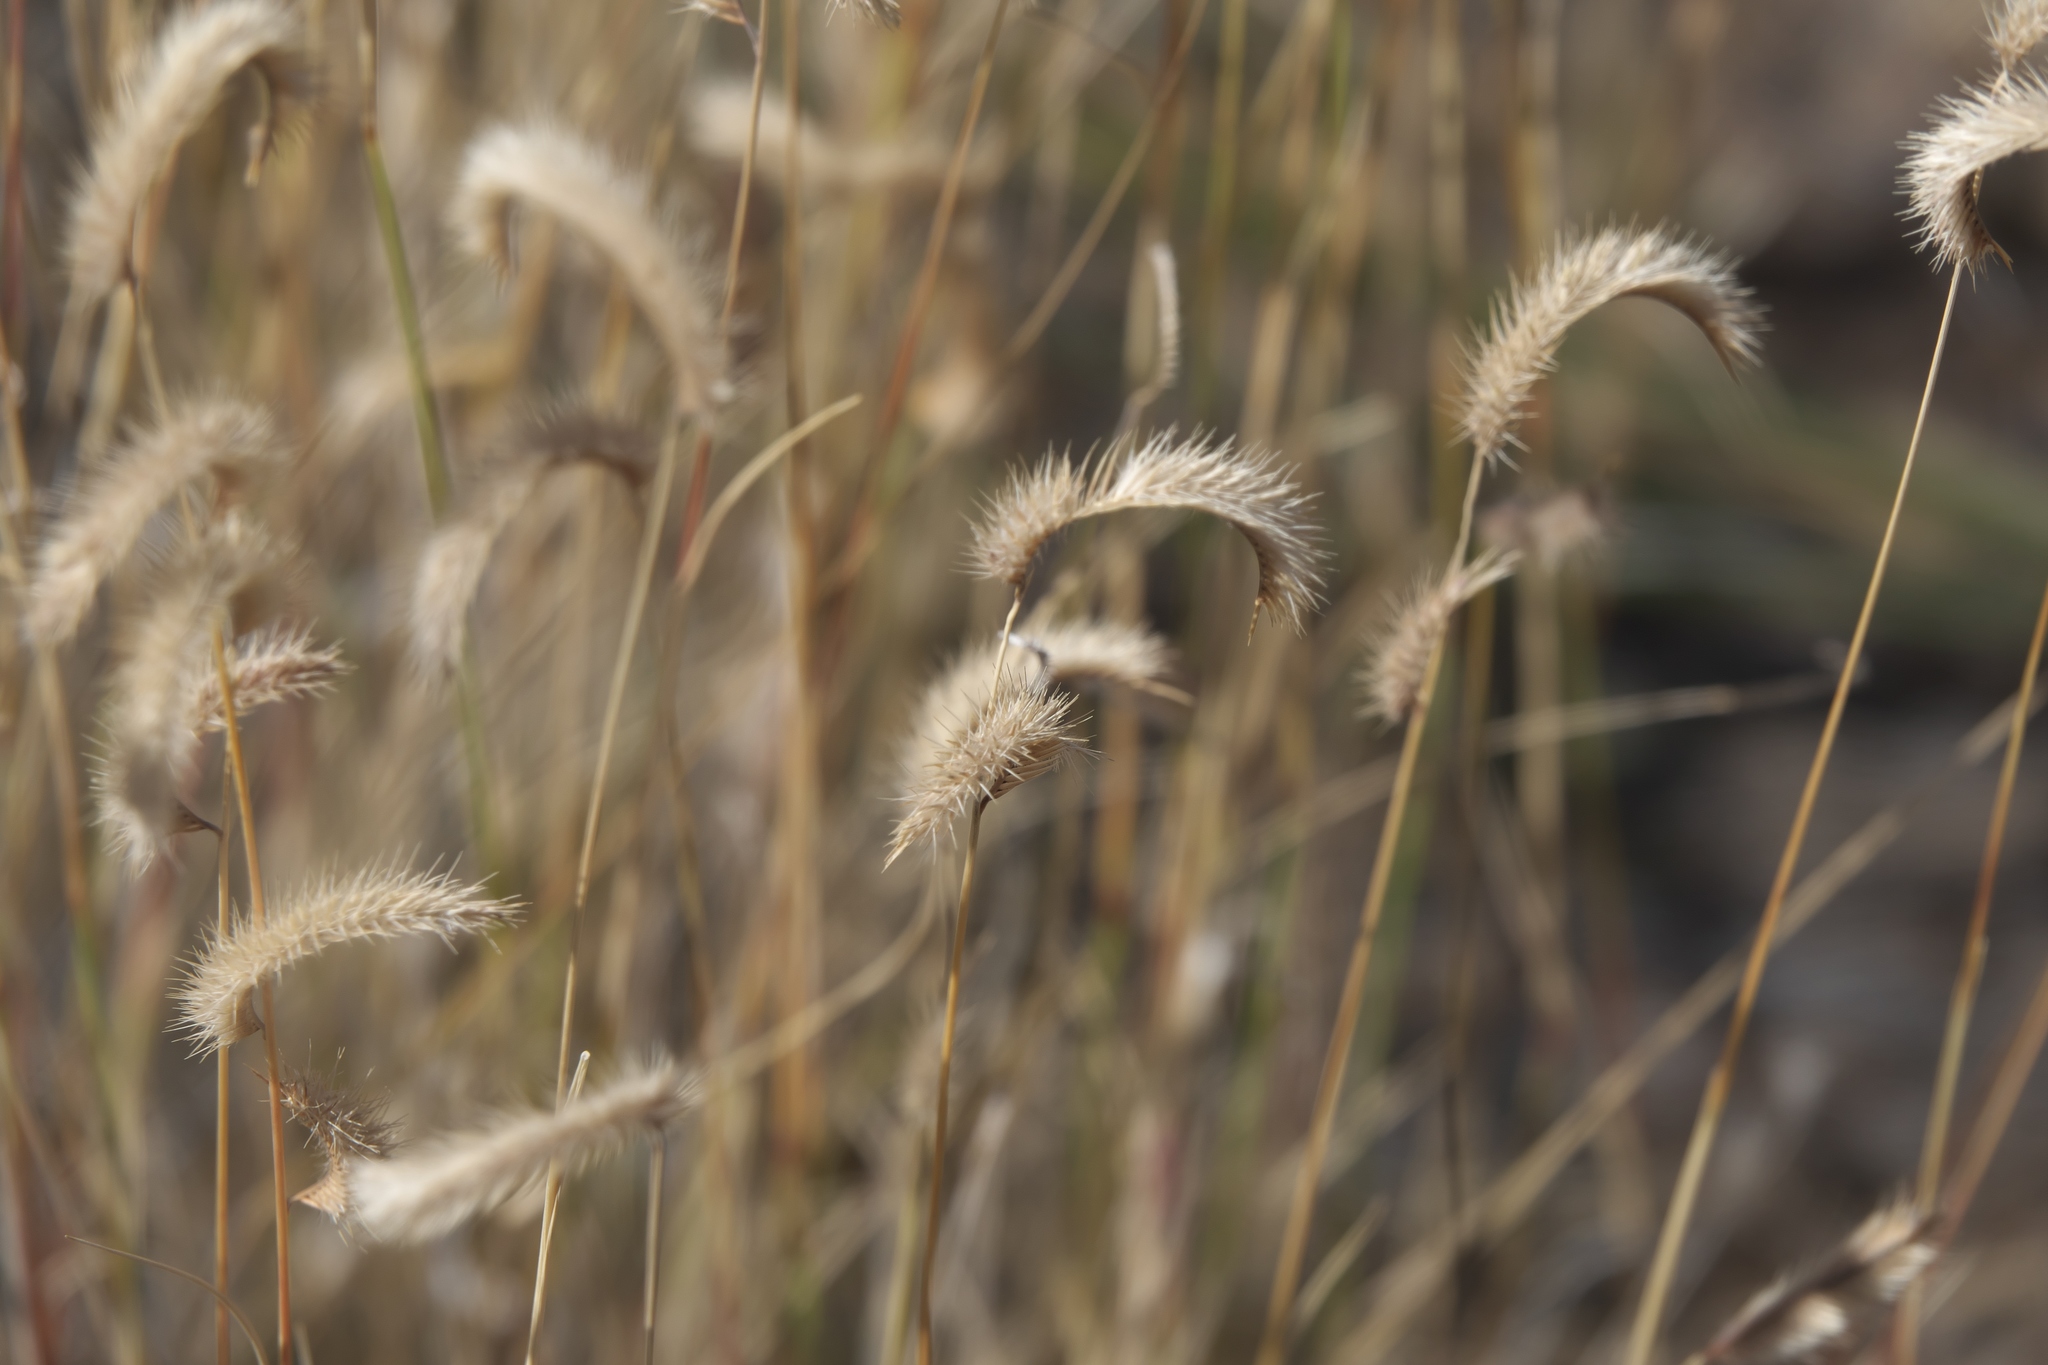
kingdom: Plantae
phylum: Tracheophyta
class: Liliopsida
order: Poales
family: Poaceae
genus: Bouteloua
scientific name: Bouteloua gracilis
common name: Blue grama
